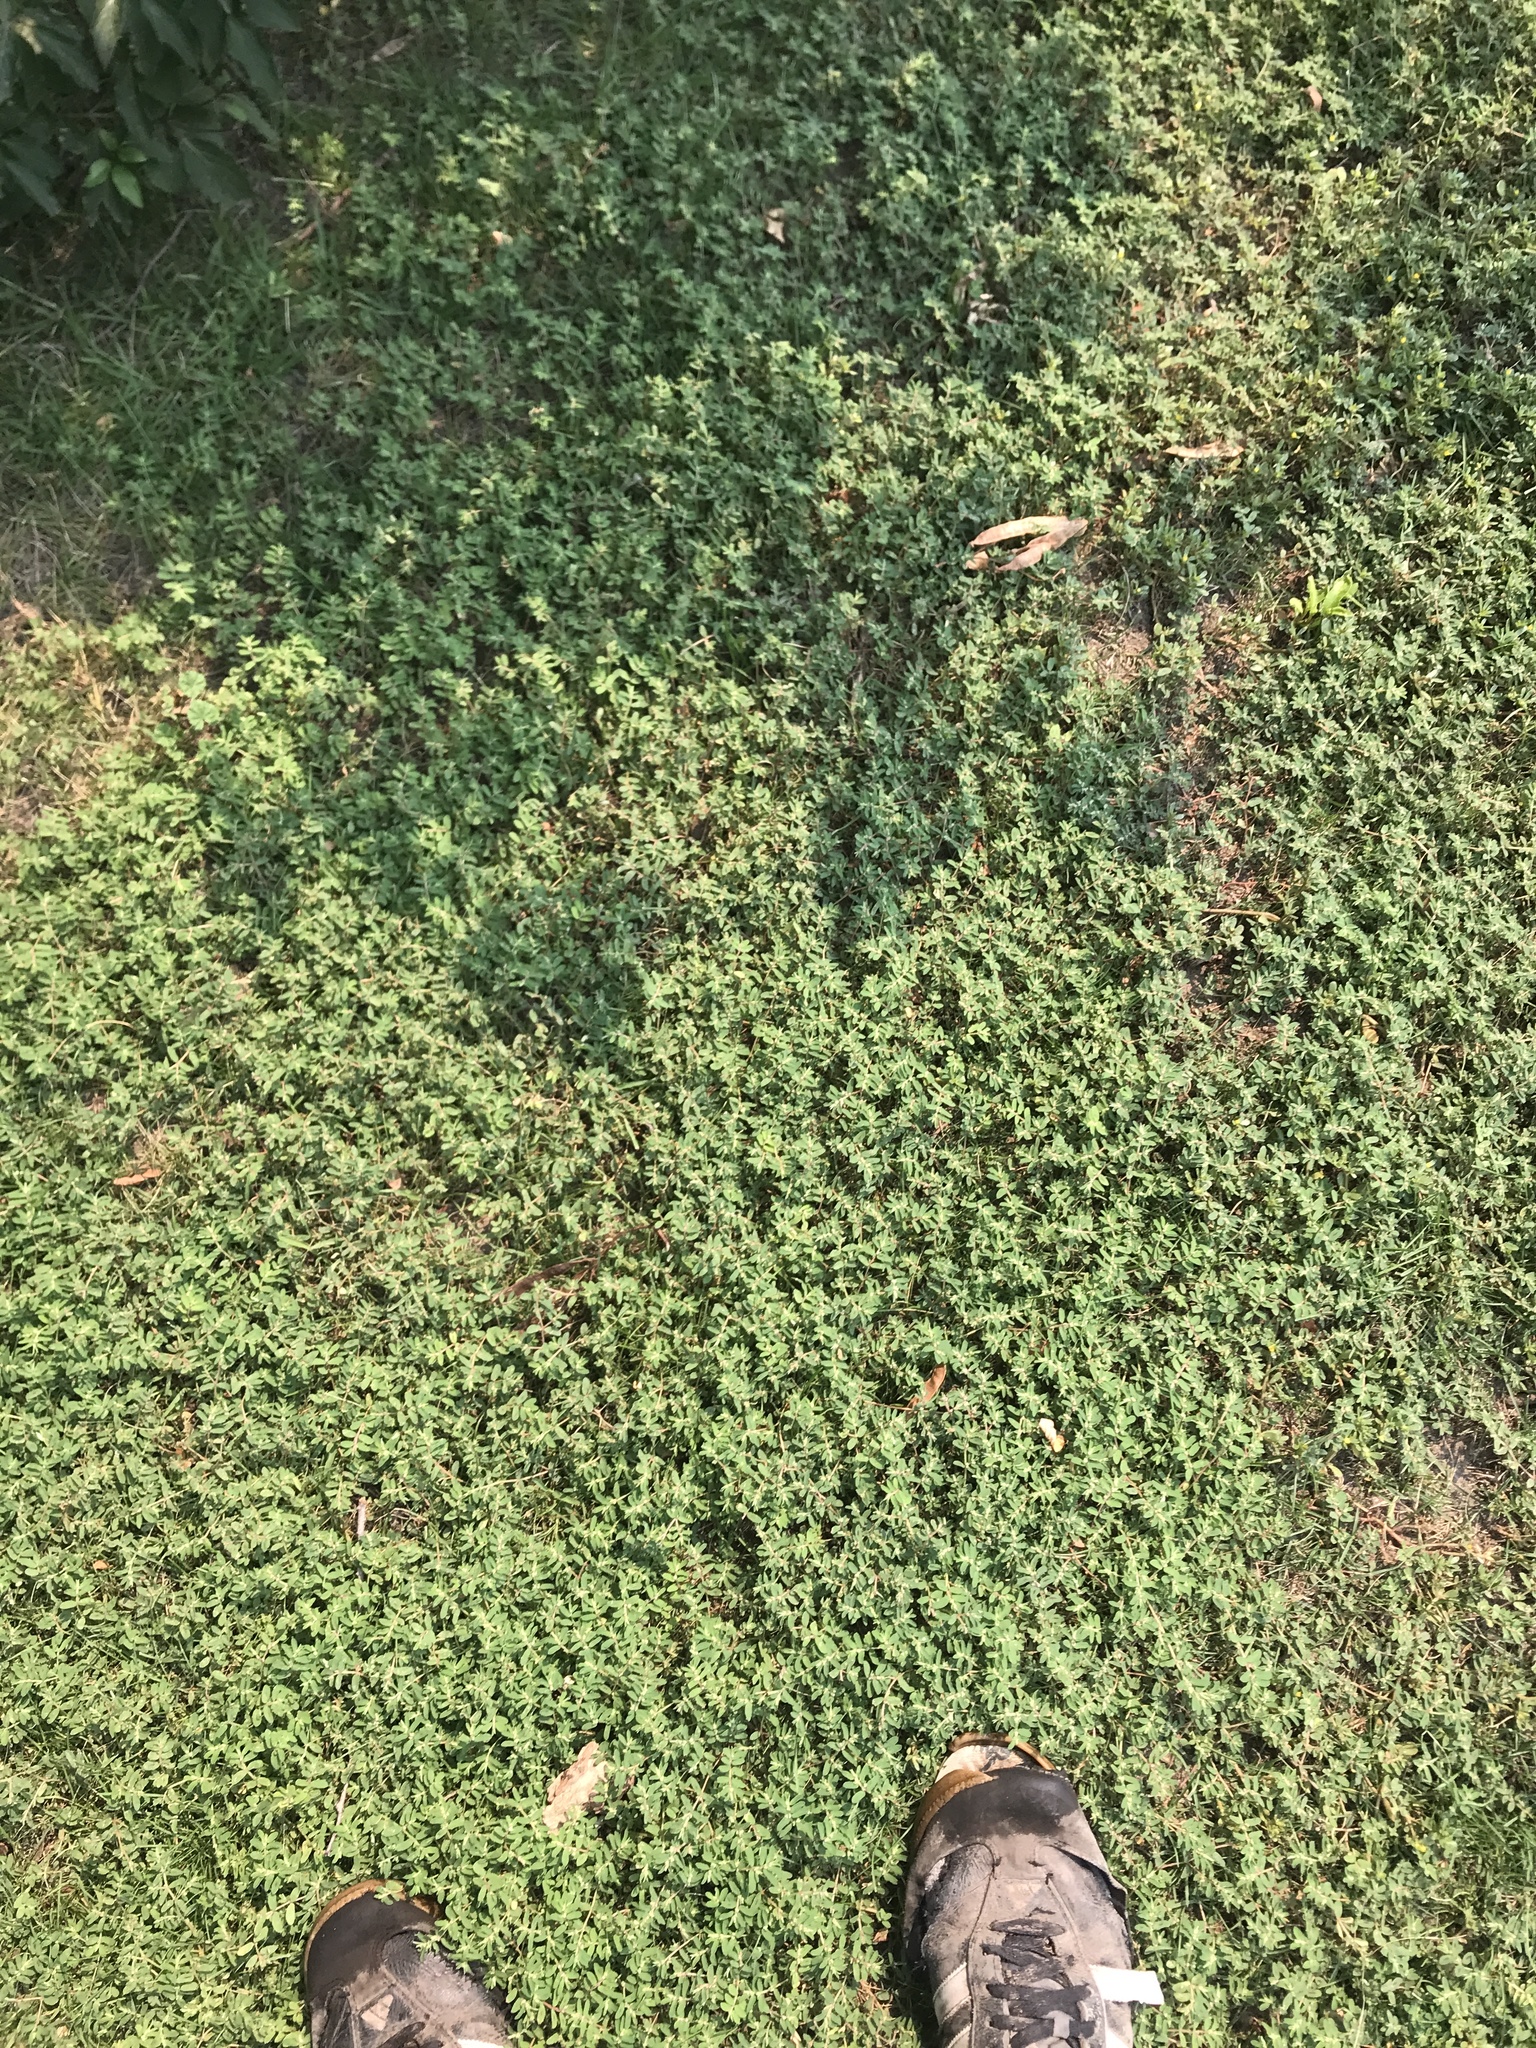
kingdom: Plantae
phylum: Tracheophyta
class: Magnoliopsida
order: Malpighiales
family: Euphorbiaceae
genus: Euphorbia
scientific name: Euphorbia maculata
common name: Spotted spurge
